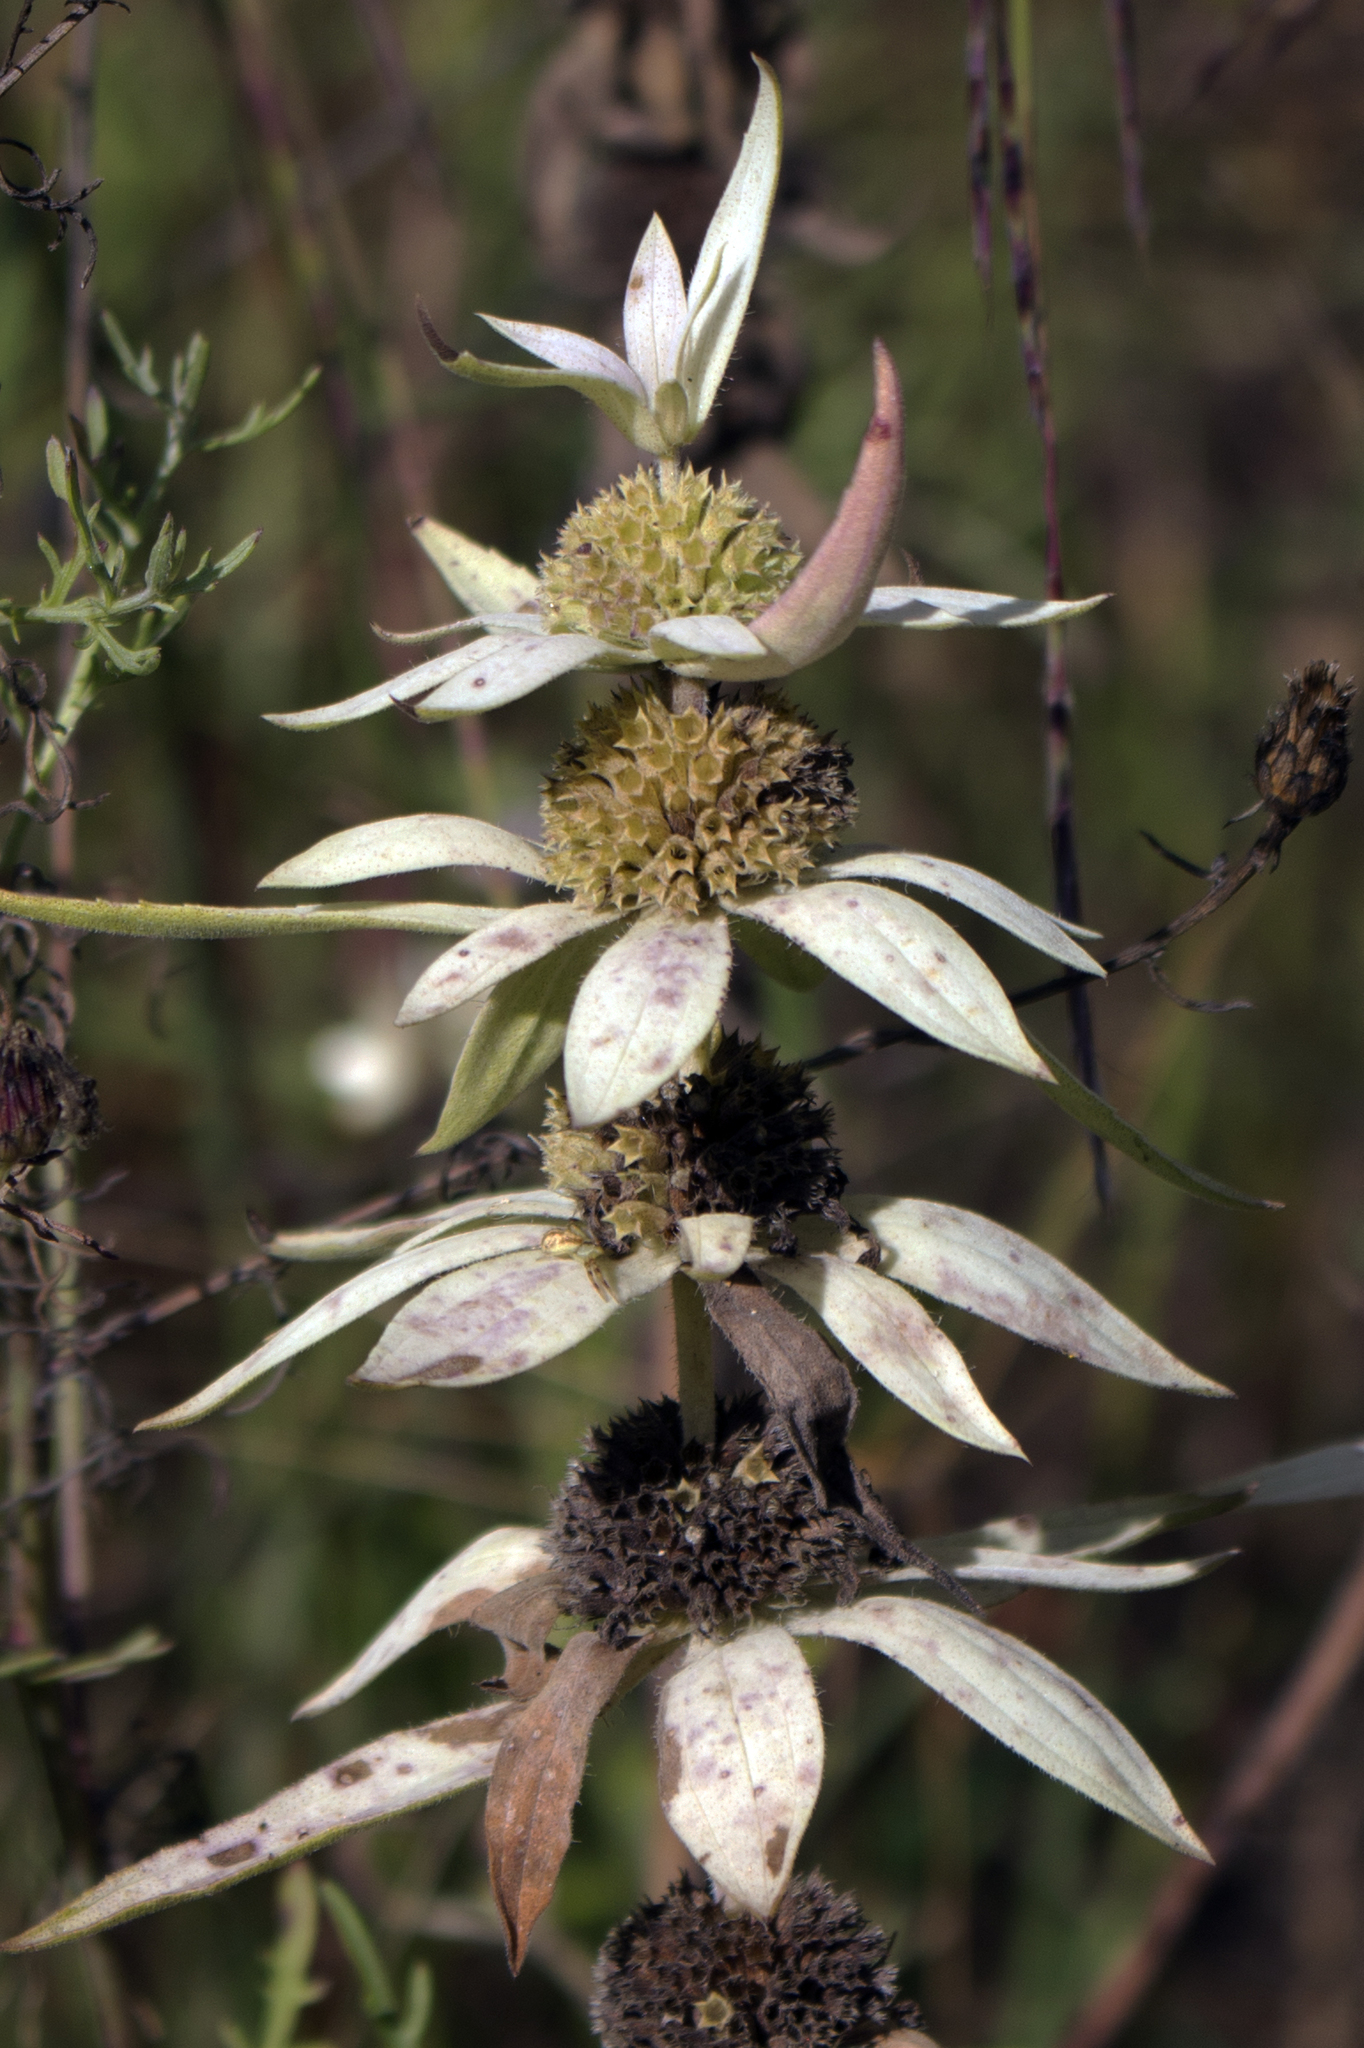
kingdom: Plantae
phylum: Tracheophyta
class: Magnoliopsida
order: Lamiales
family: Lamiaceae
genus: Monarda
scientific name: Monarda punctata
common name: Dotted monarda
